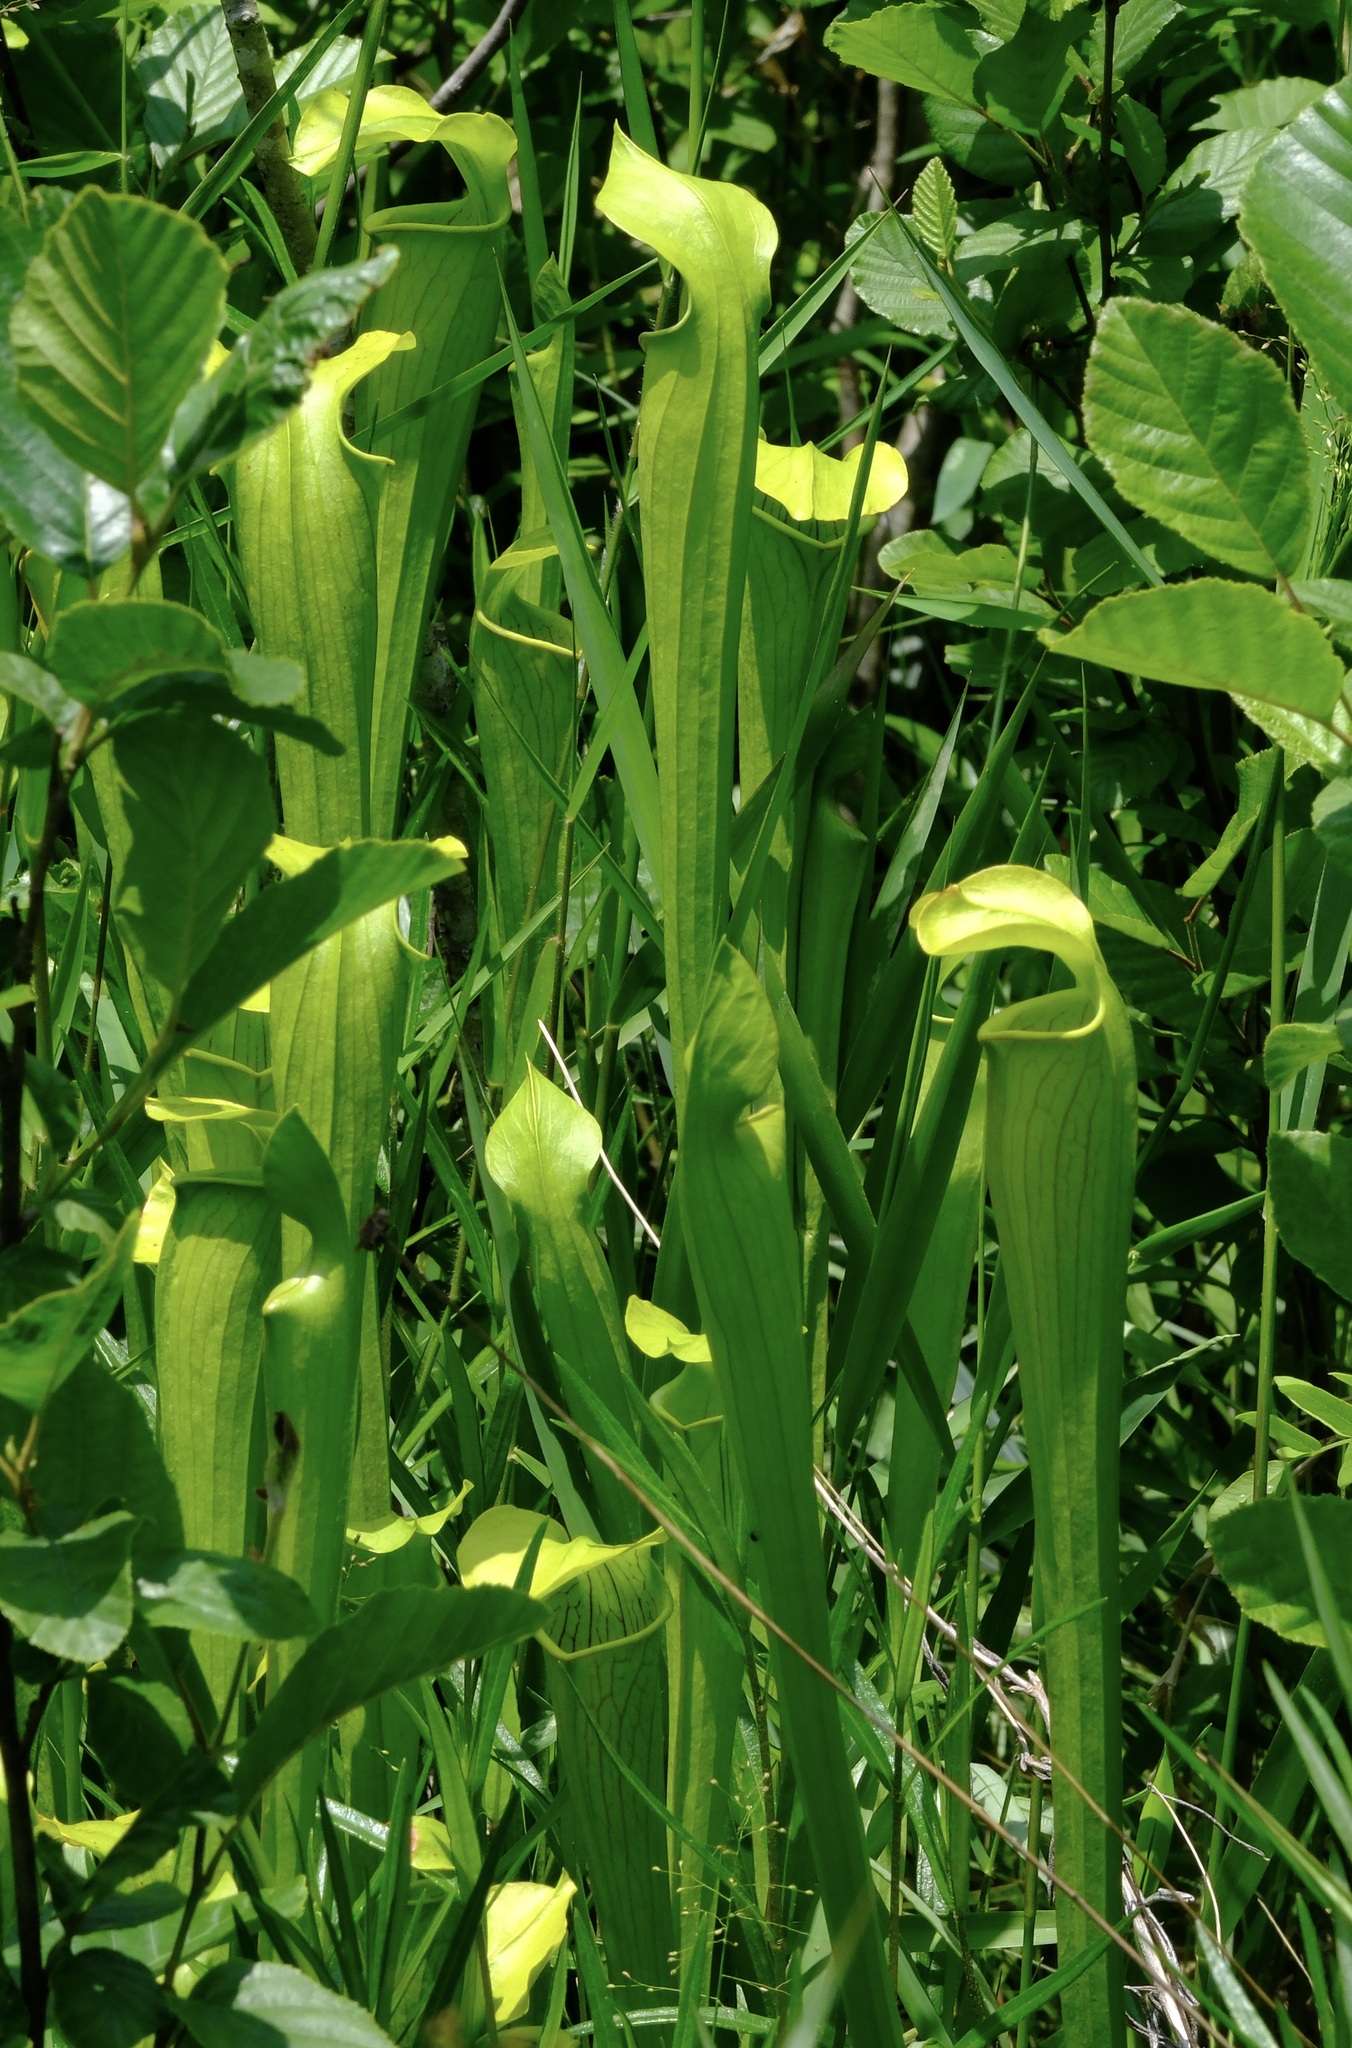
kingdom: Plantae
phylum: Tracheophyta
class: Magnoliopsida
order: Ericales
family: Sarraceniaceae
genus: Sarracenia
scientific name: Sarracenia alata
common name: Yellow trumpets
